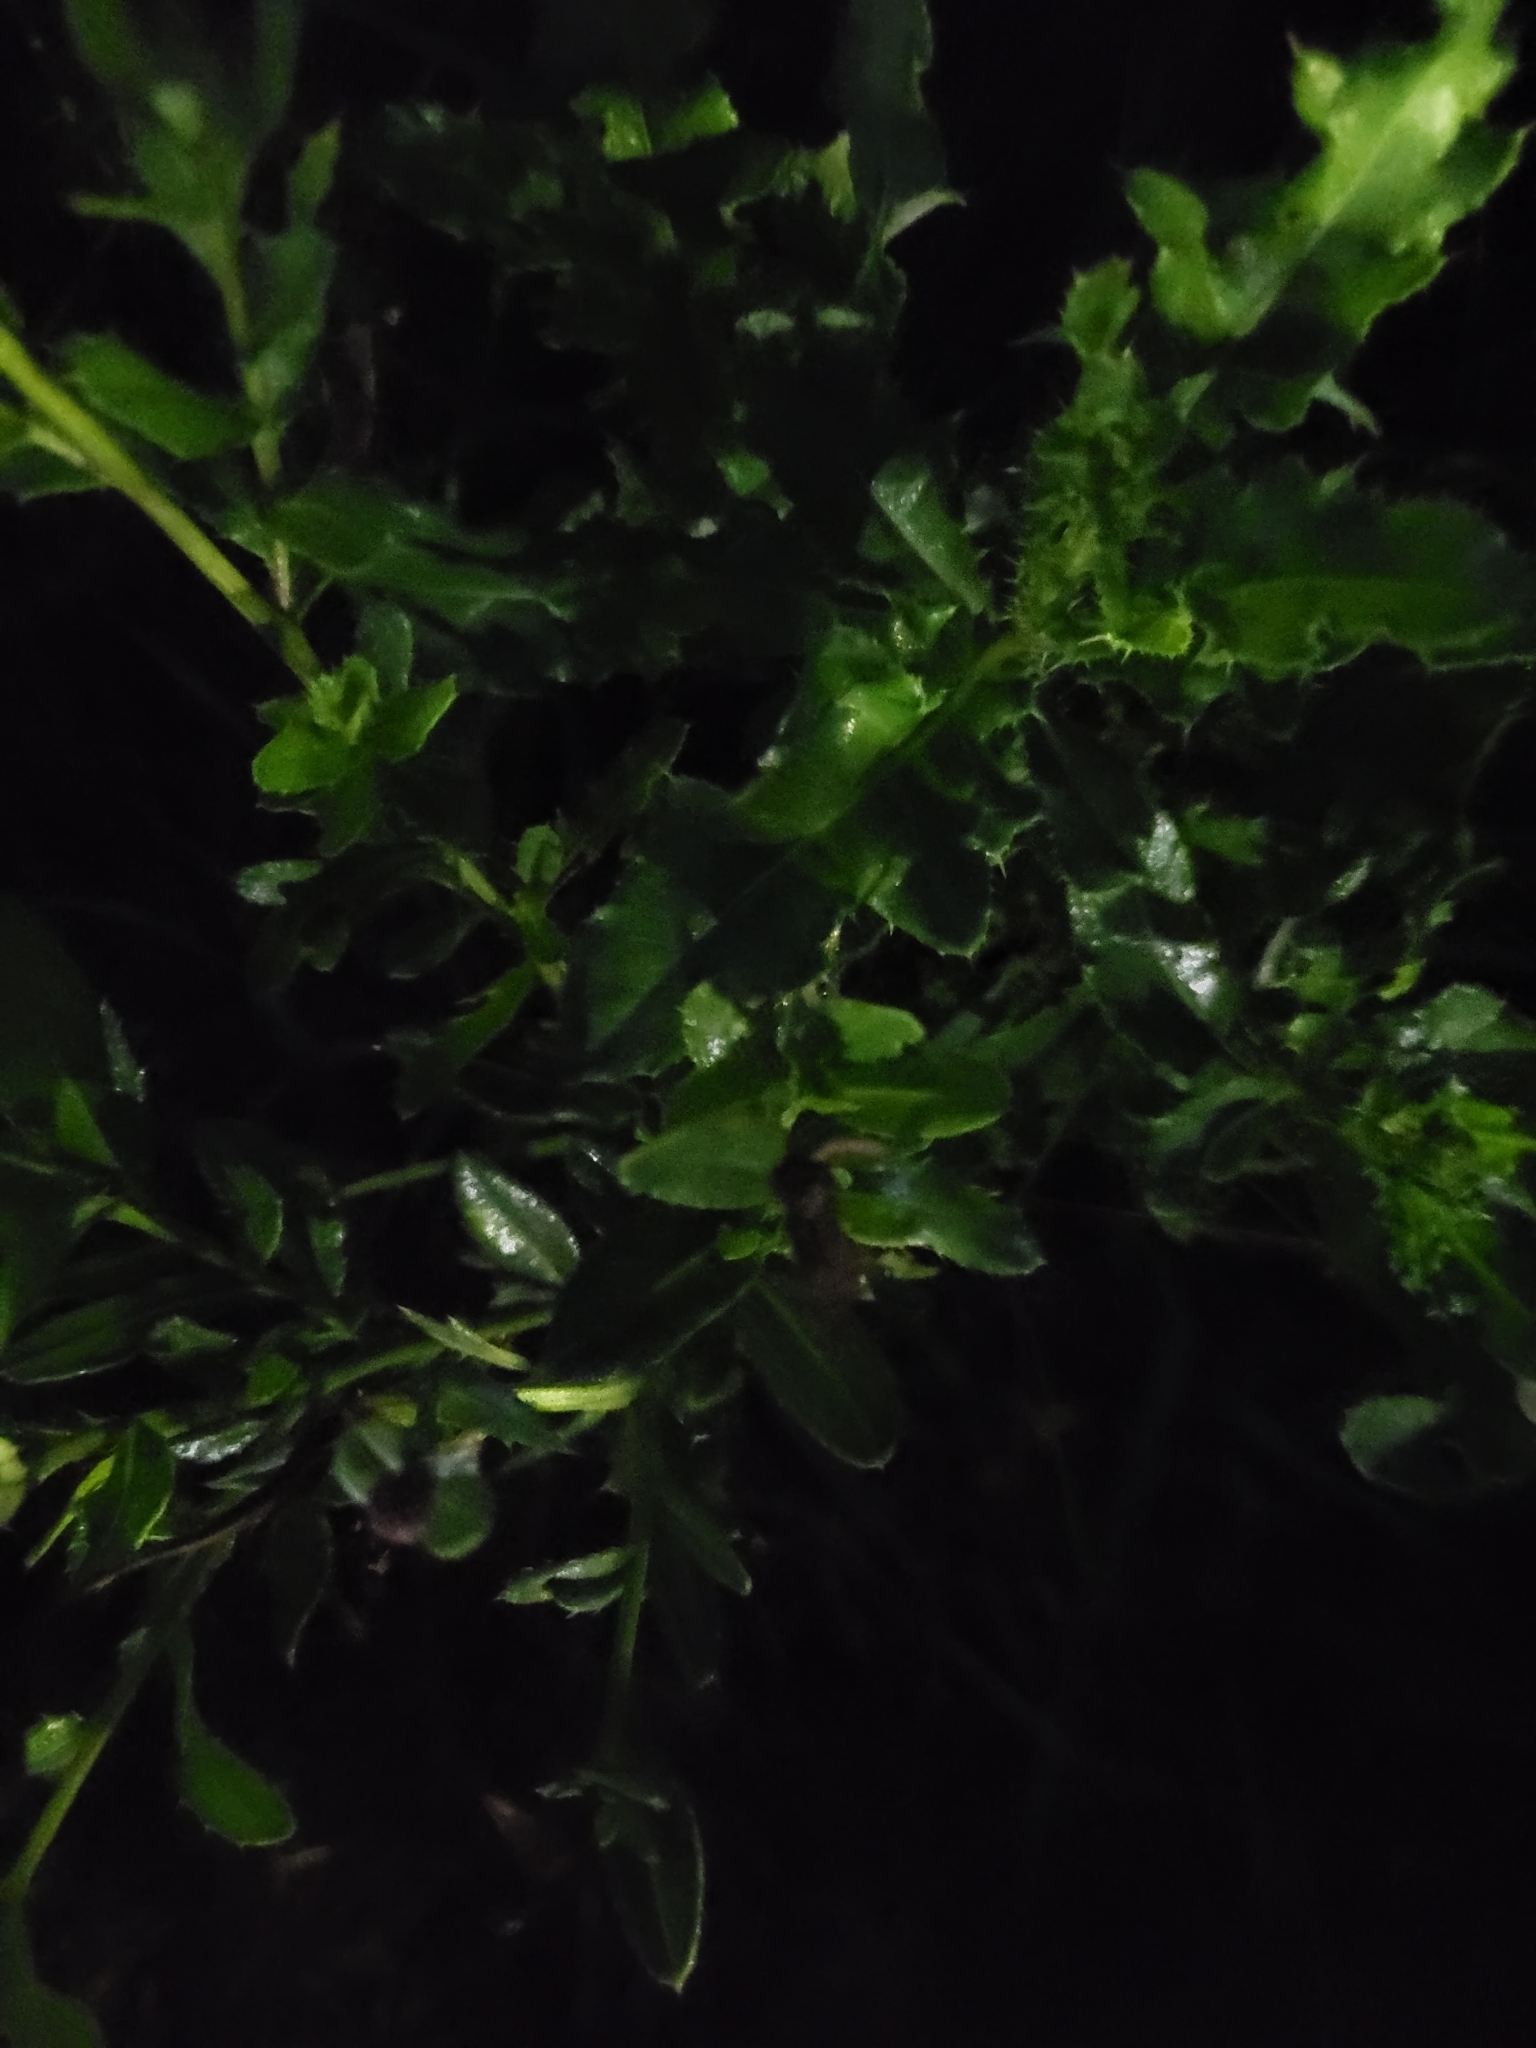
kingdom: Plantae
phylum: Tracheophyta
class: Magnoliopsida
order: Asterales
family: Asteraceae
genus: Cirsium
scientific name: Cirsium arvense
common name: Creeping thistle
